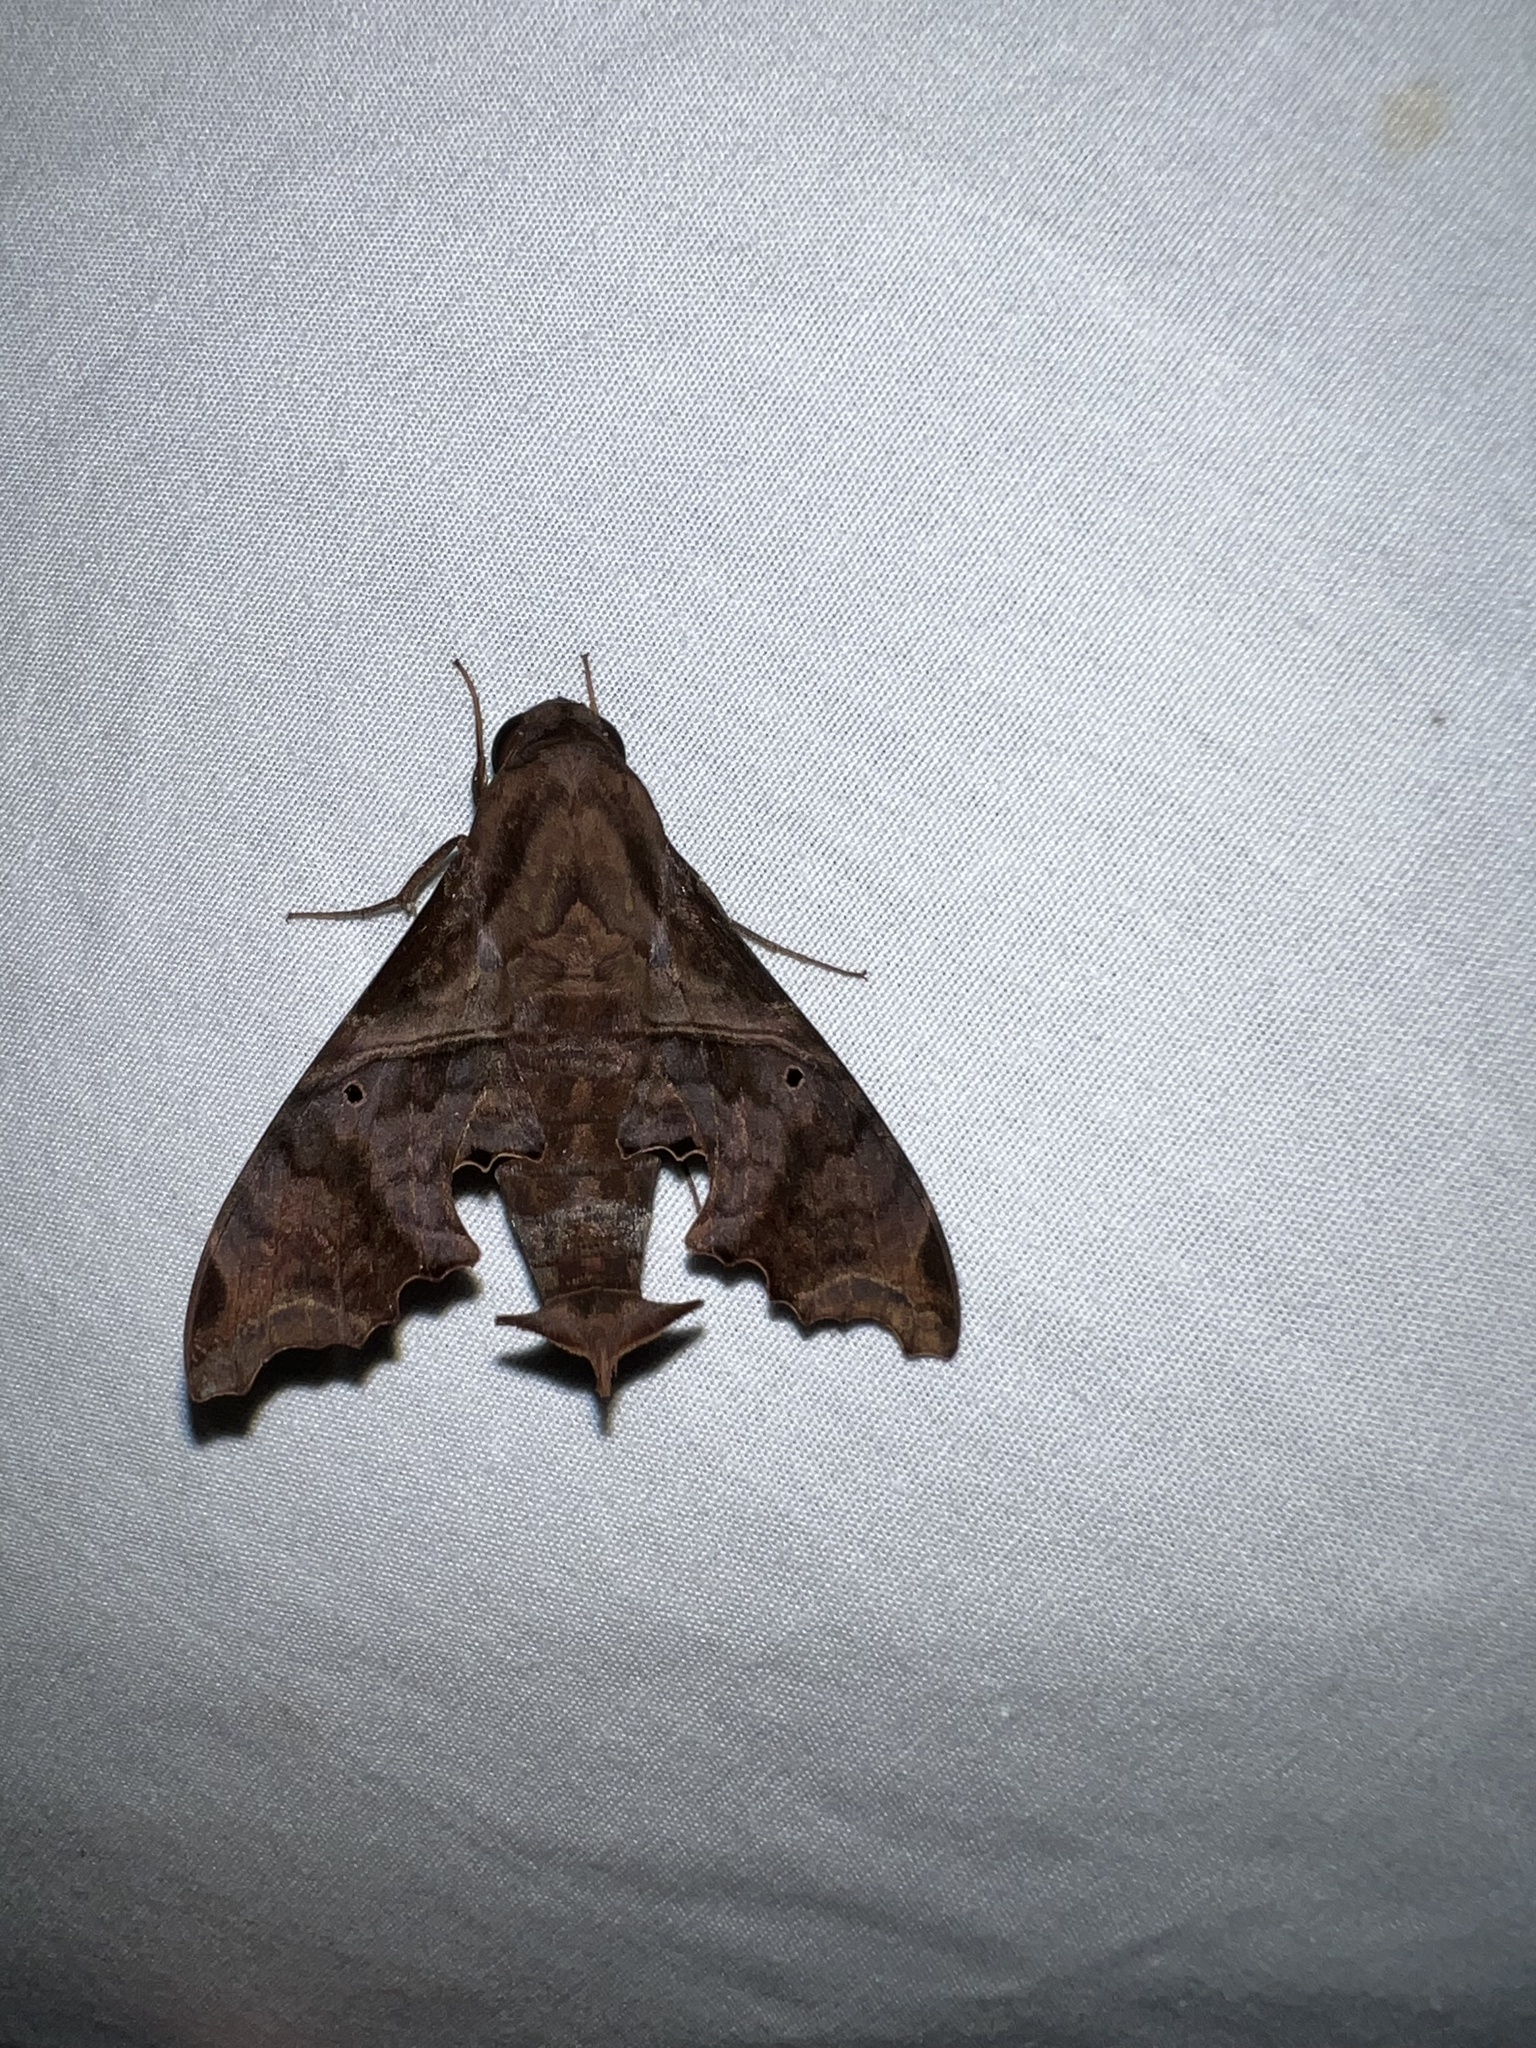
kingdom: Animalia
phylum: Arthropoda
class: Insecta
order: Lepidoptera
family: Sphingidae
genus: Enyo
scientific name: Enyo lugubris
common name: Mournful sphinx
